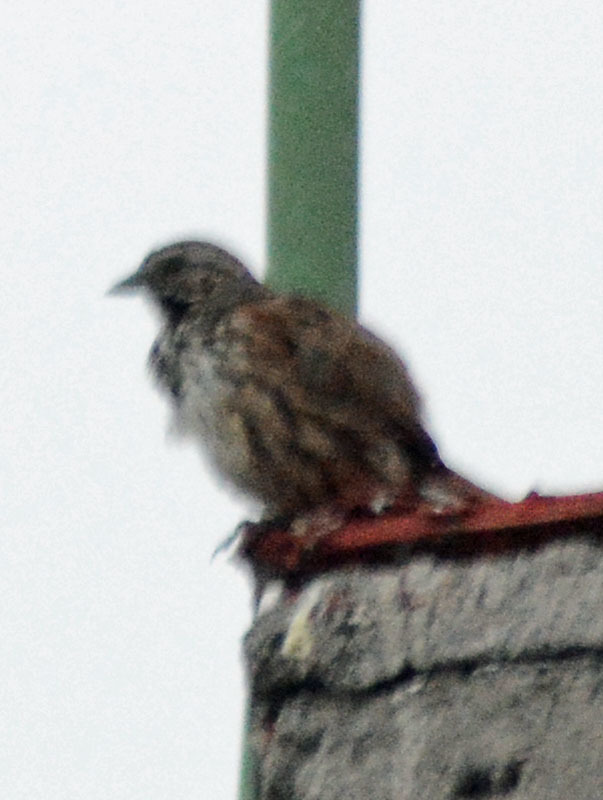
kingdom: Animalia
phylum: Chordata
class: Aves
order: Passeriformes
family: Passerellidae
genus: Melospiza
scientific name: Melospiza melodia
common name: Song sparrow
